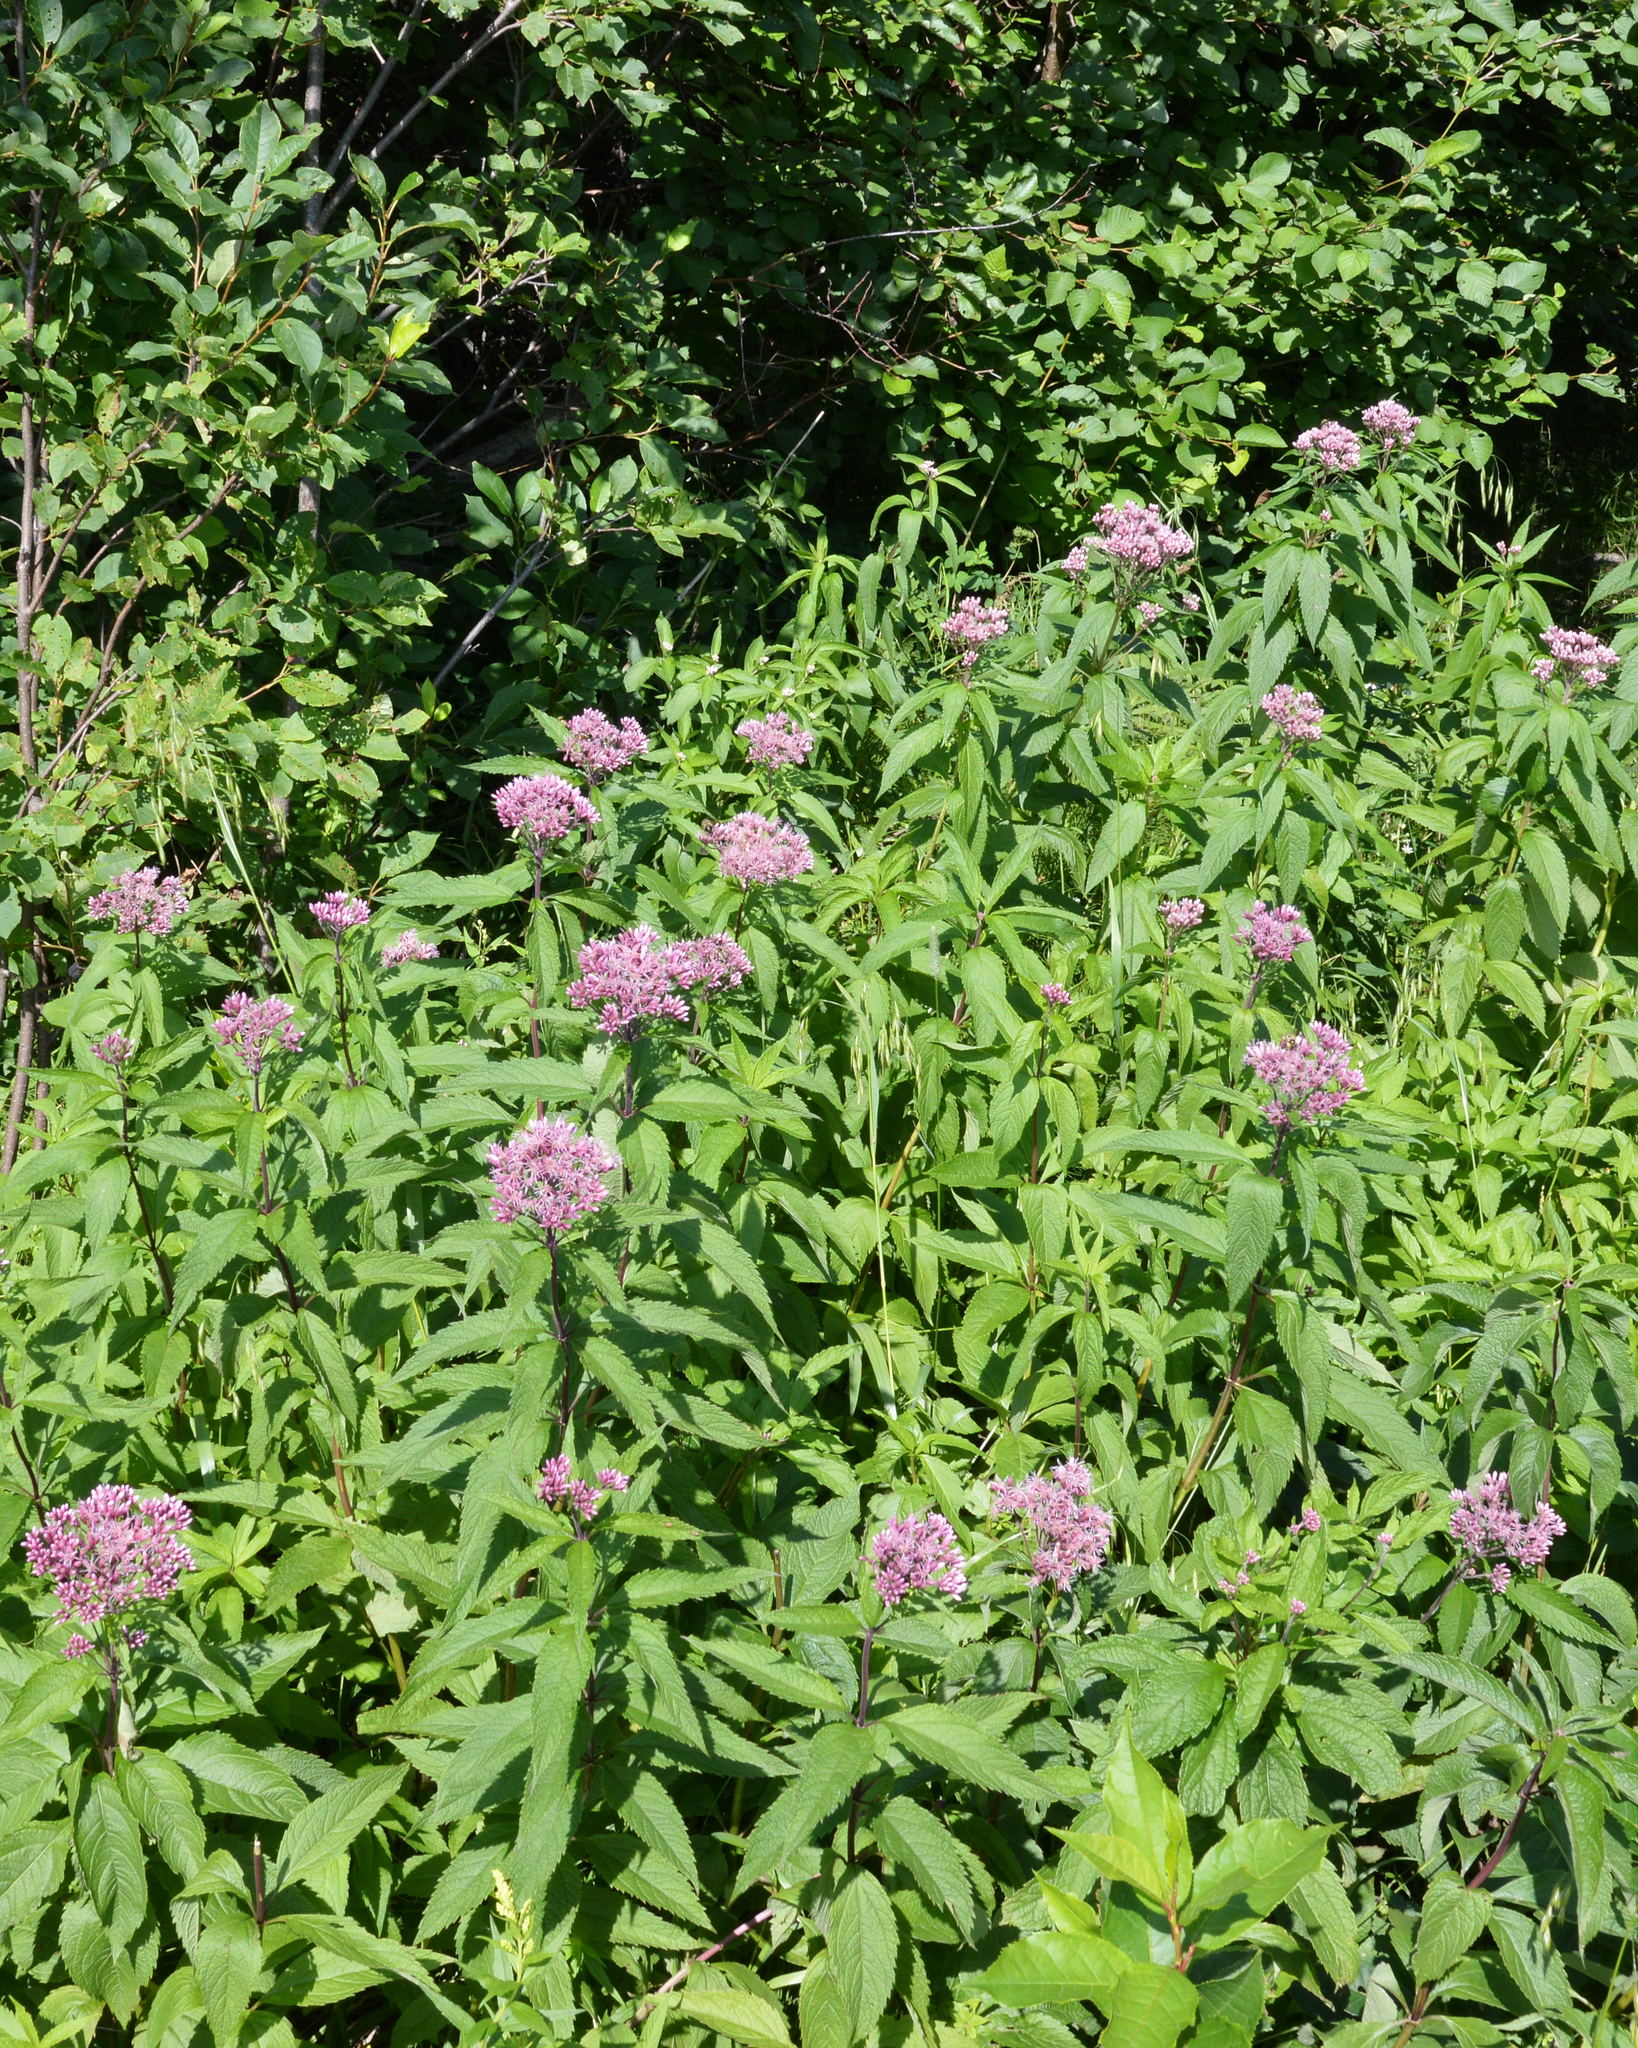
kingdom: Plantae
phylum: Tracheophyta
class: Magnoliopsida
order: Asterales
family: Asteraceae
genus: Eutrochium
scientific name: Eutrochium maculatum
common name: Spotted joe pye weed
